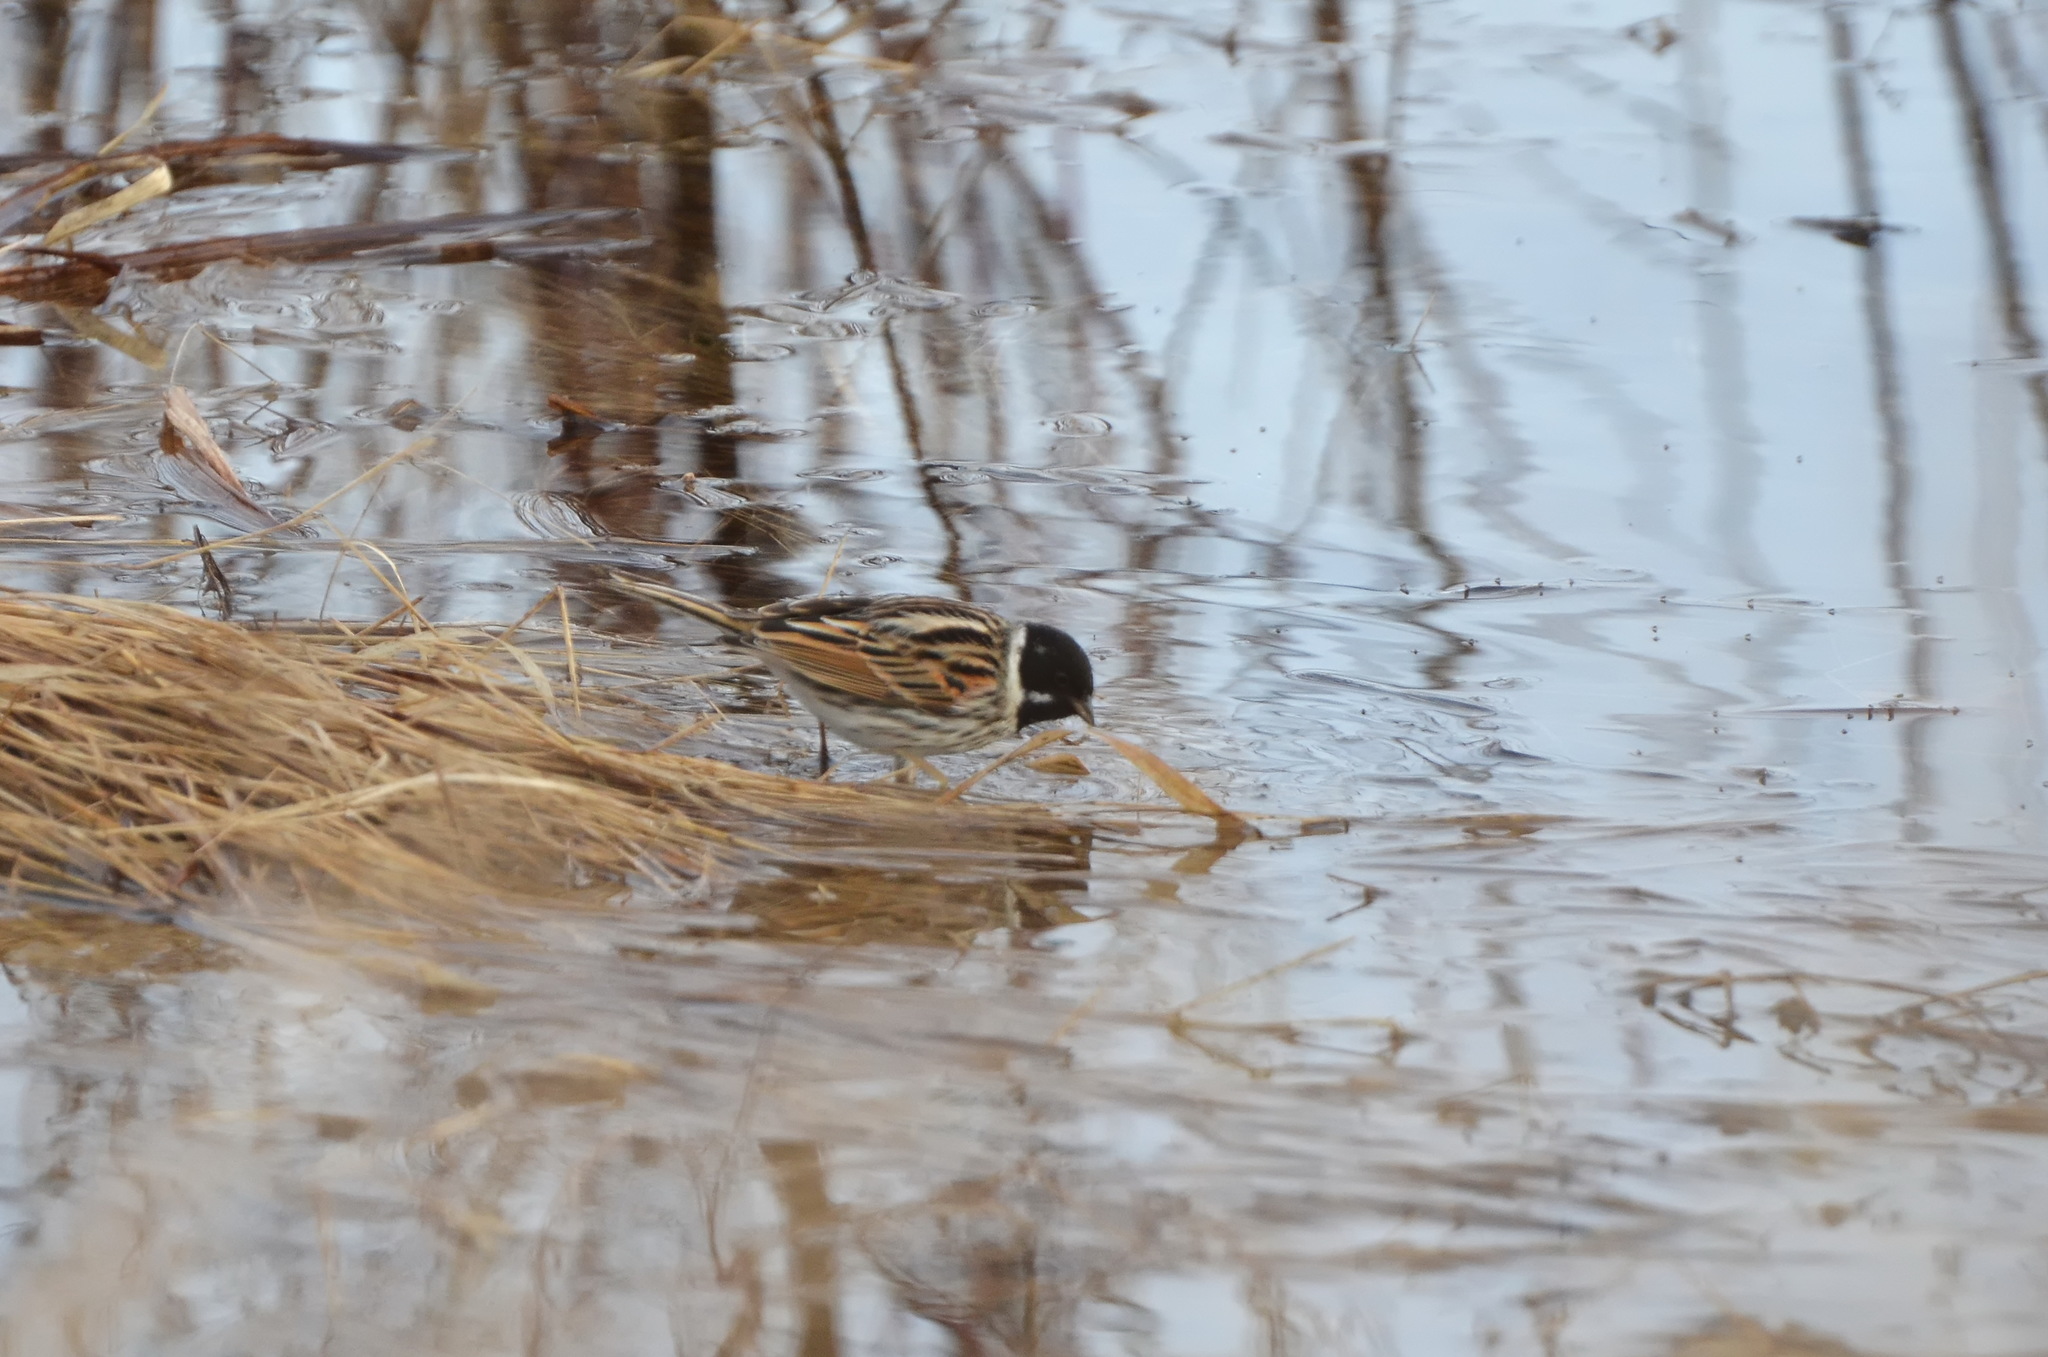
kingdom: Animalia
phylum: Chordata
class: Aves
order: Passeriformes
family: Emberizidae
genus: Emberiza
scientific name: Emberiza schoeniclus
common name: Reed bunting
